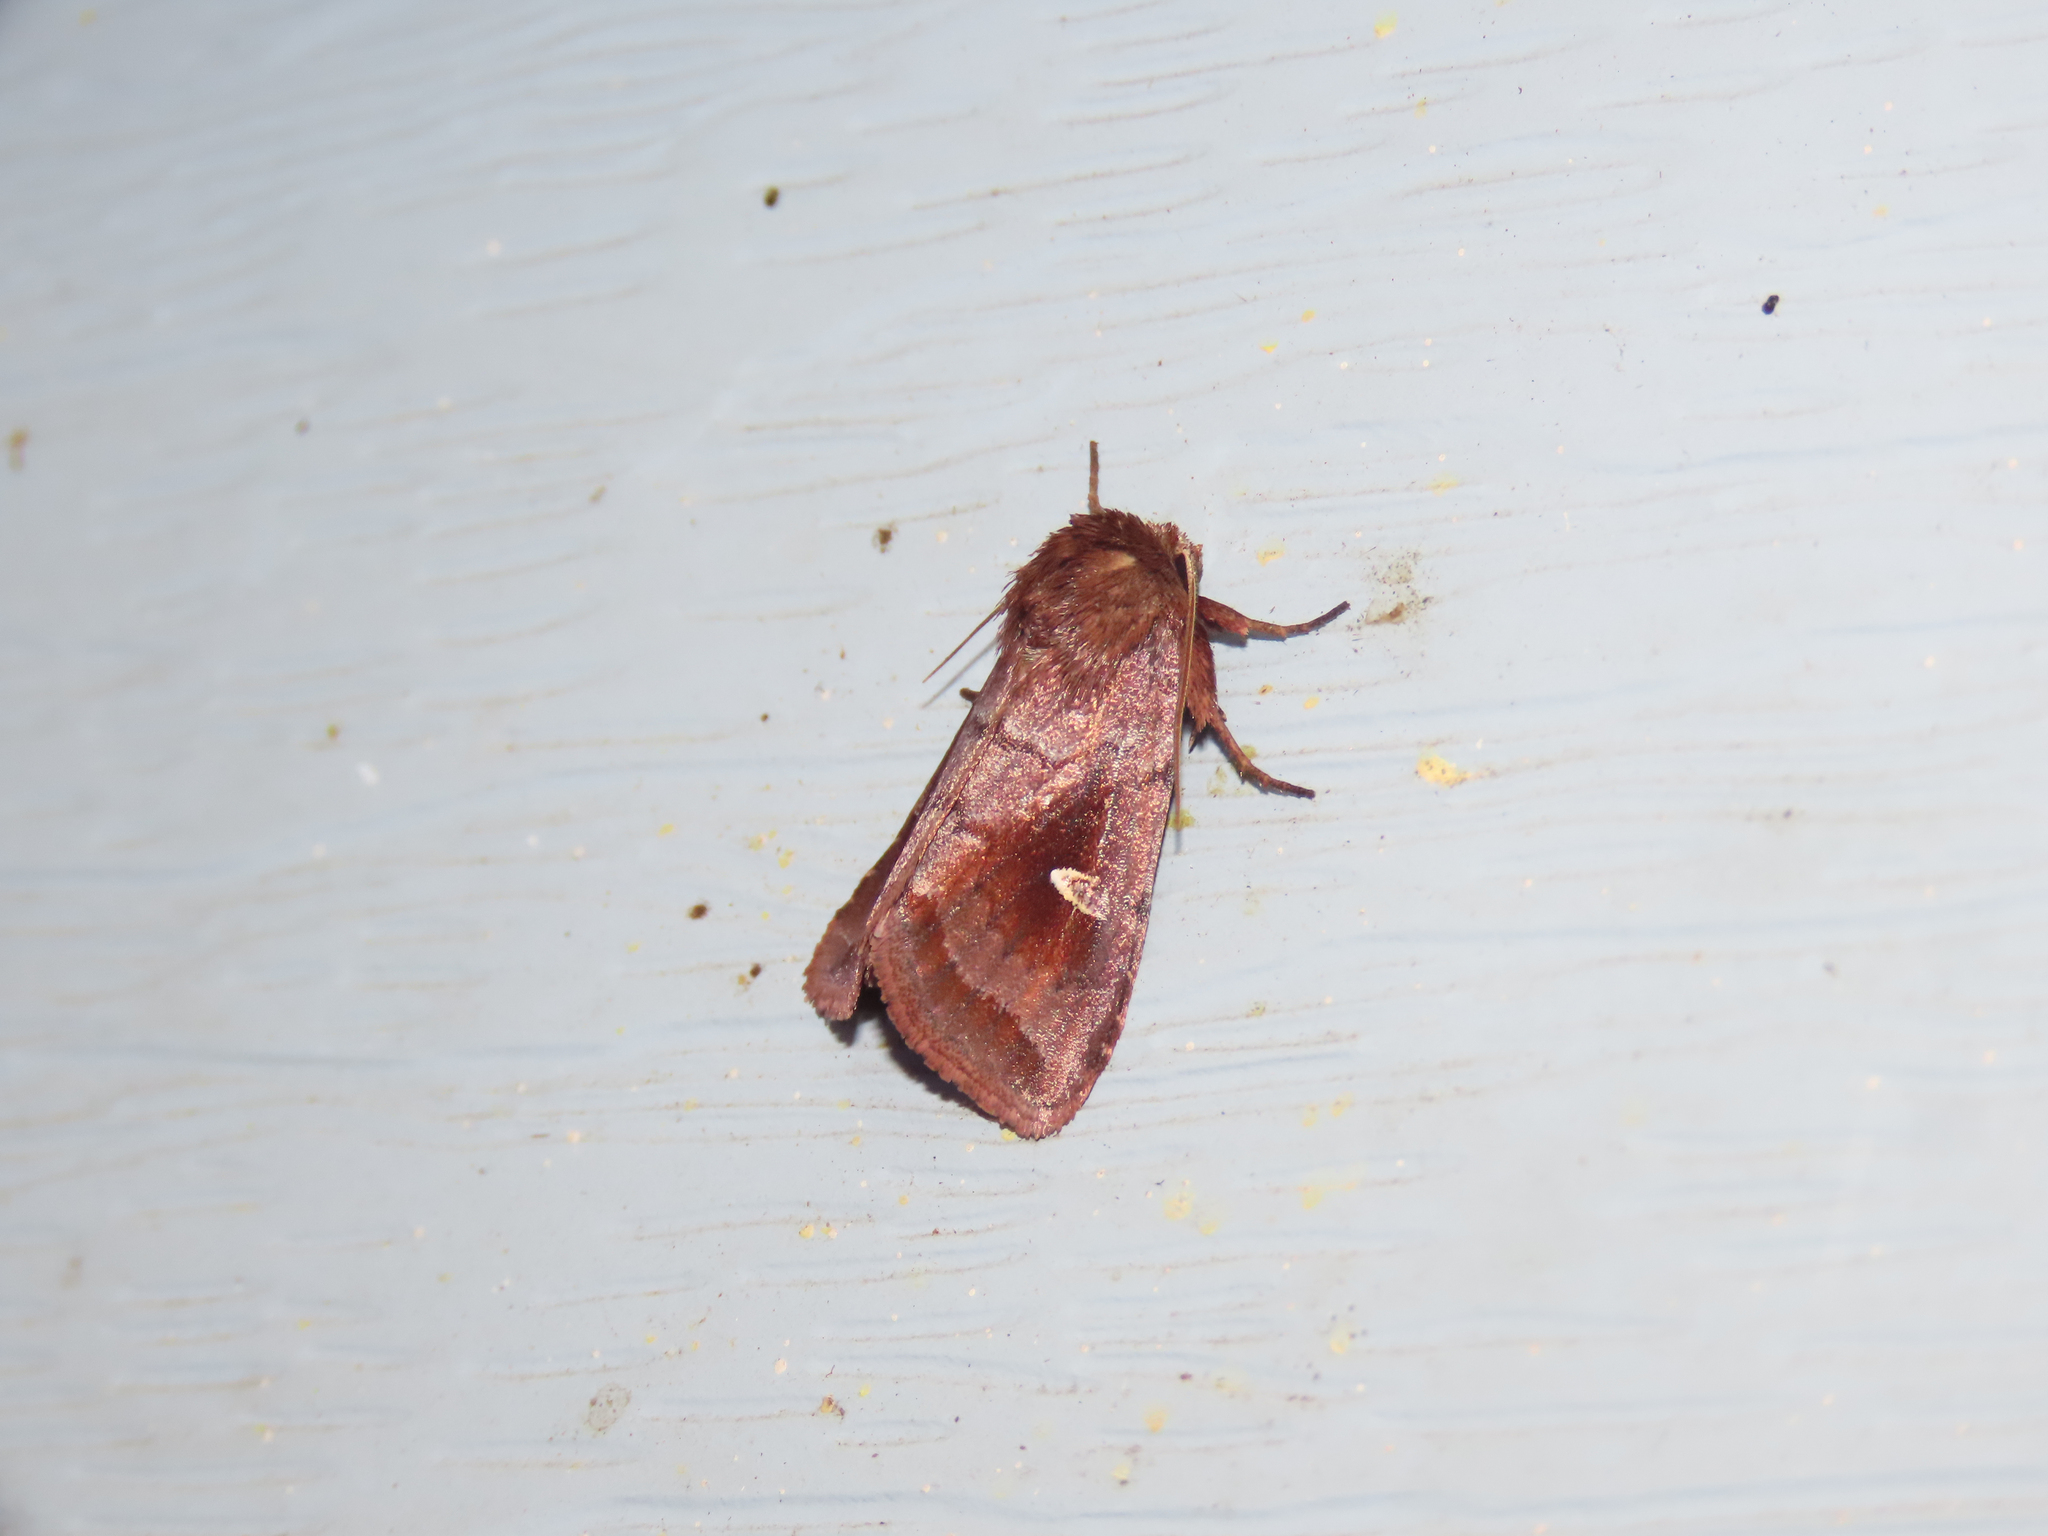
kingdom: Animalia
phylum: Arthropoda
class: Insecta
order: Lepidoptera
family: Noctuidae
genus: Iodopepla
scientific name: Iodopepla ualbum
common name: White-eyed borer moth
